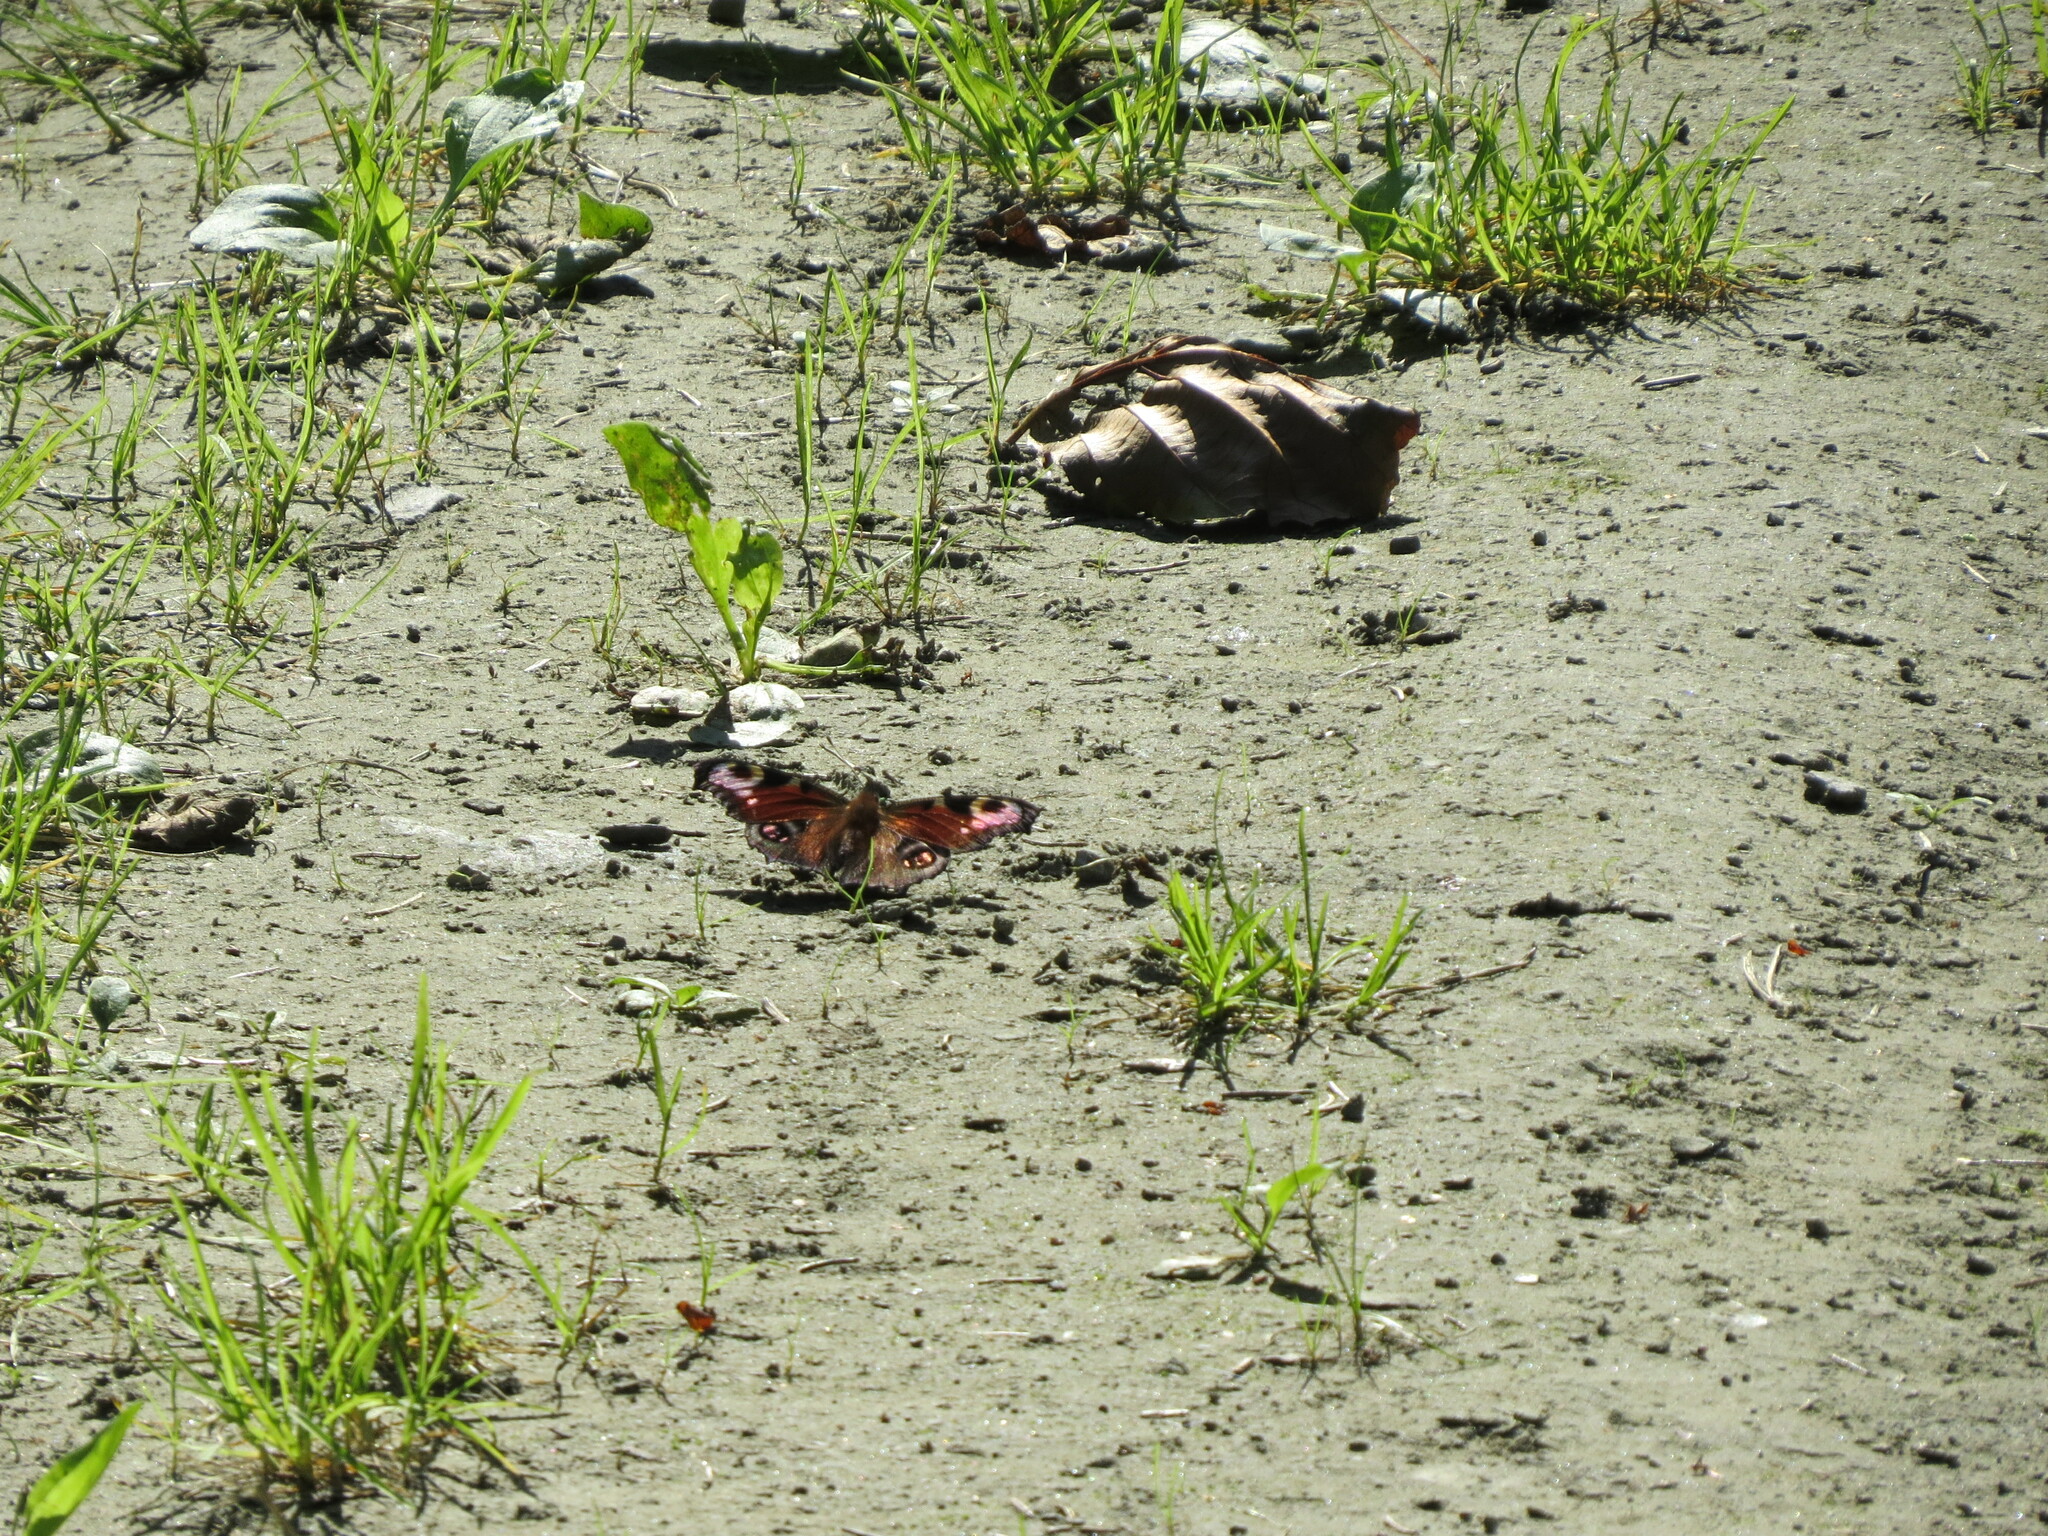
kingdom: Animalia
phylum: Arthropoda
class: Insecta
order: Lepidoptera
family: Nymphalidae
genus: Aglais
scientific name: Aglais io
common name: Peacock
